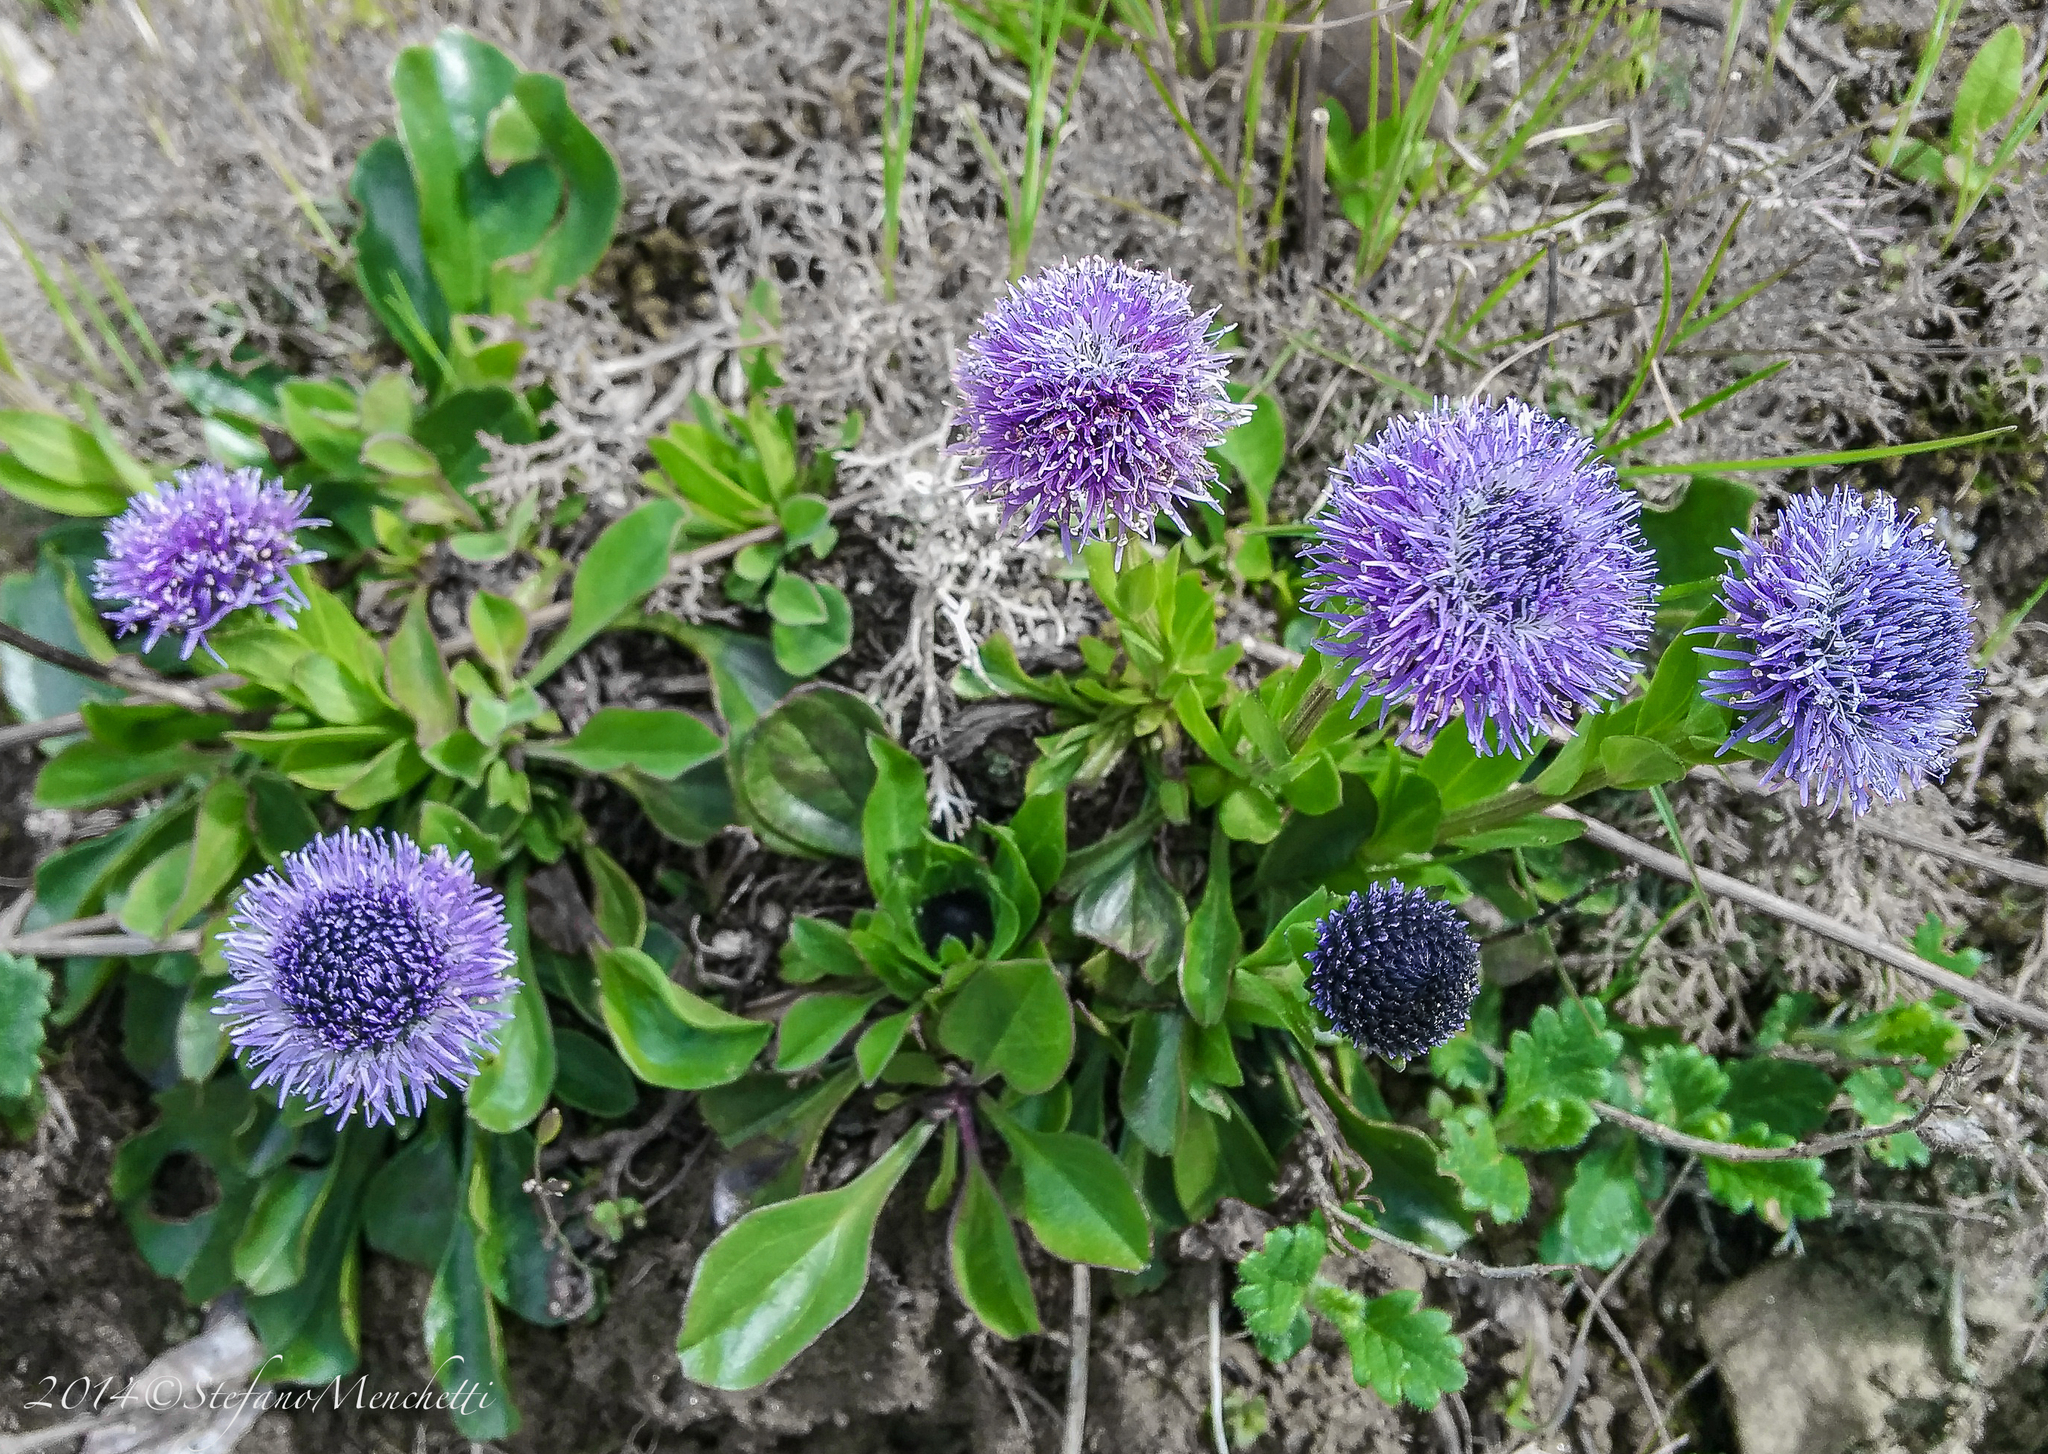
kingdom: Plantae
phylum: Tracheophyta
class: Magnoliopsida
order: Lamiales
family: Plantaginaceae
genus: Globularia
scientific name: Globularia bisnagarica
